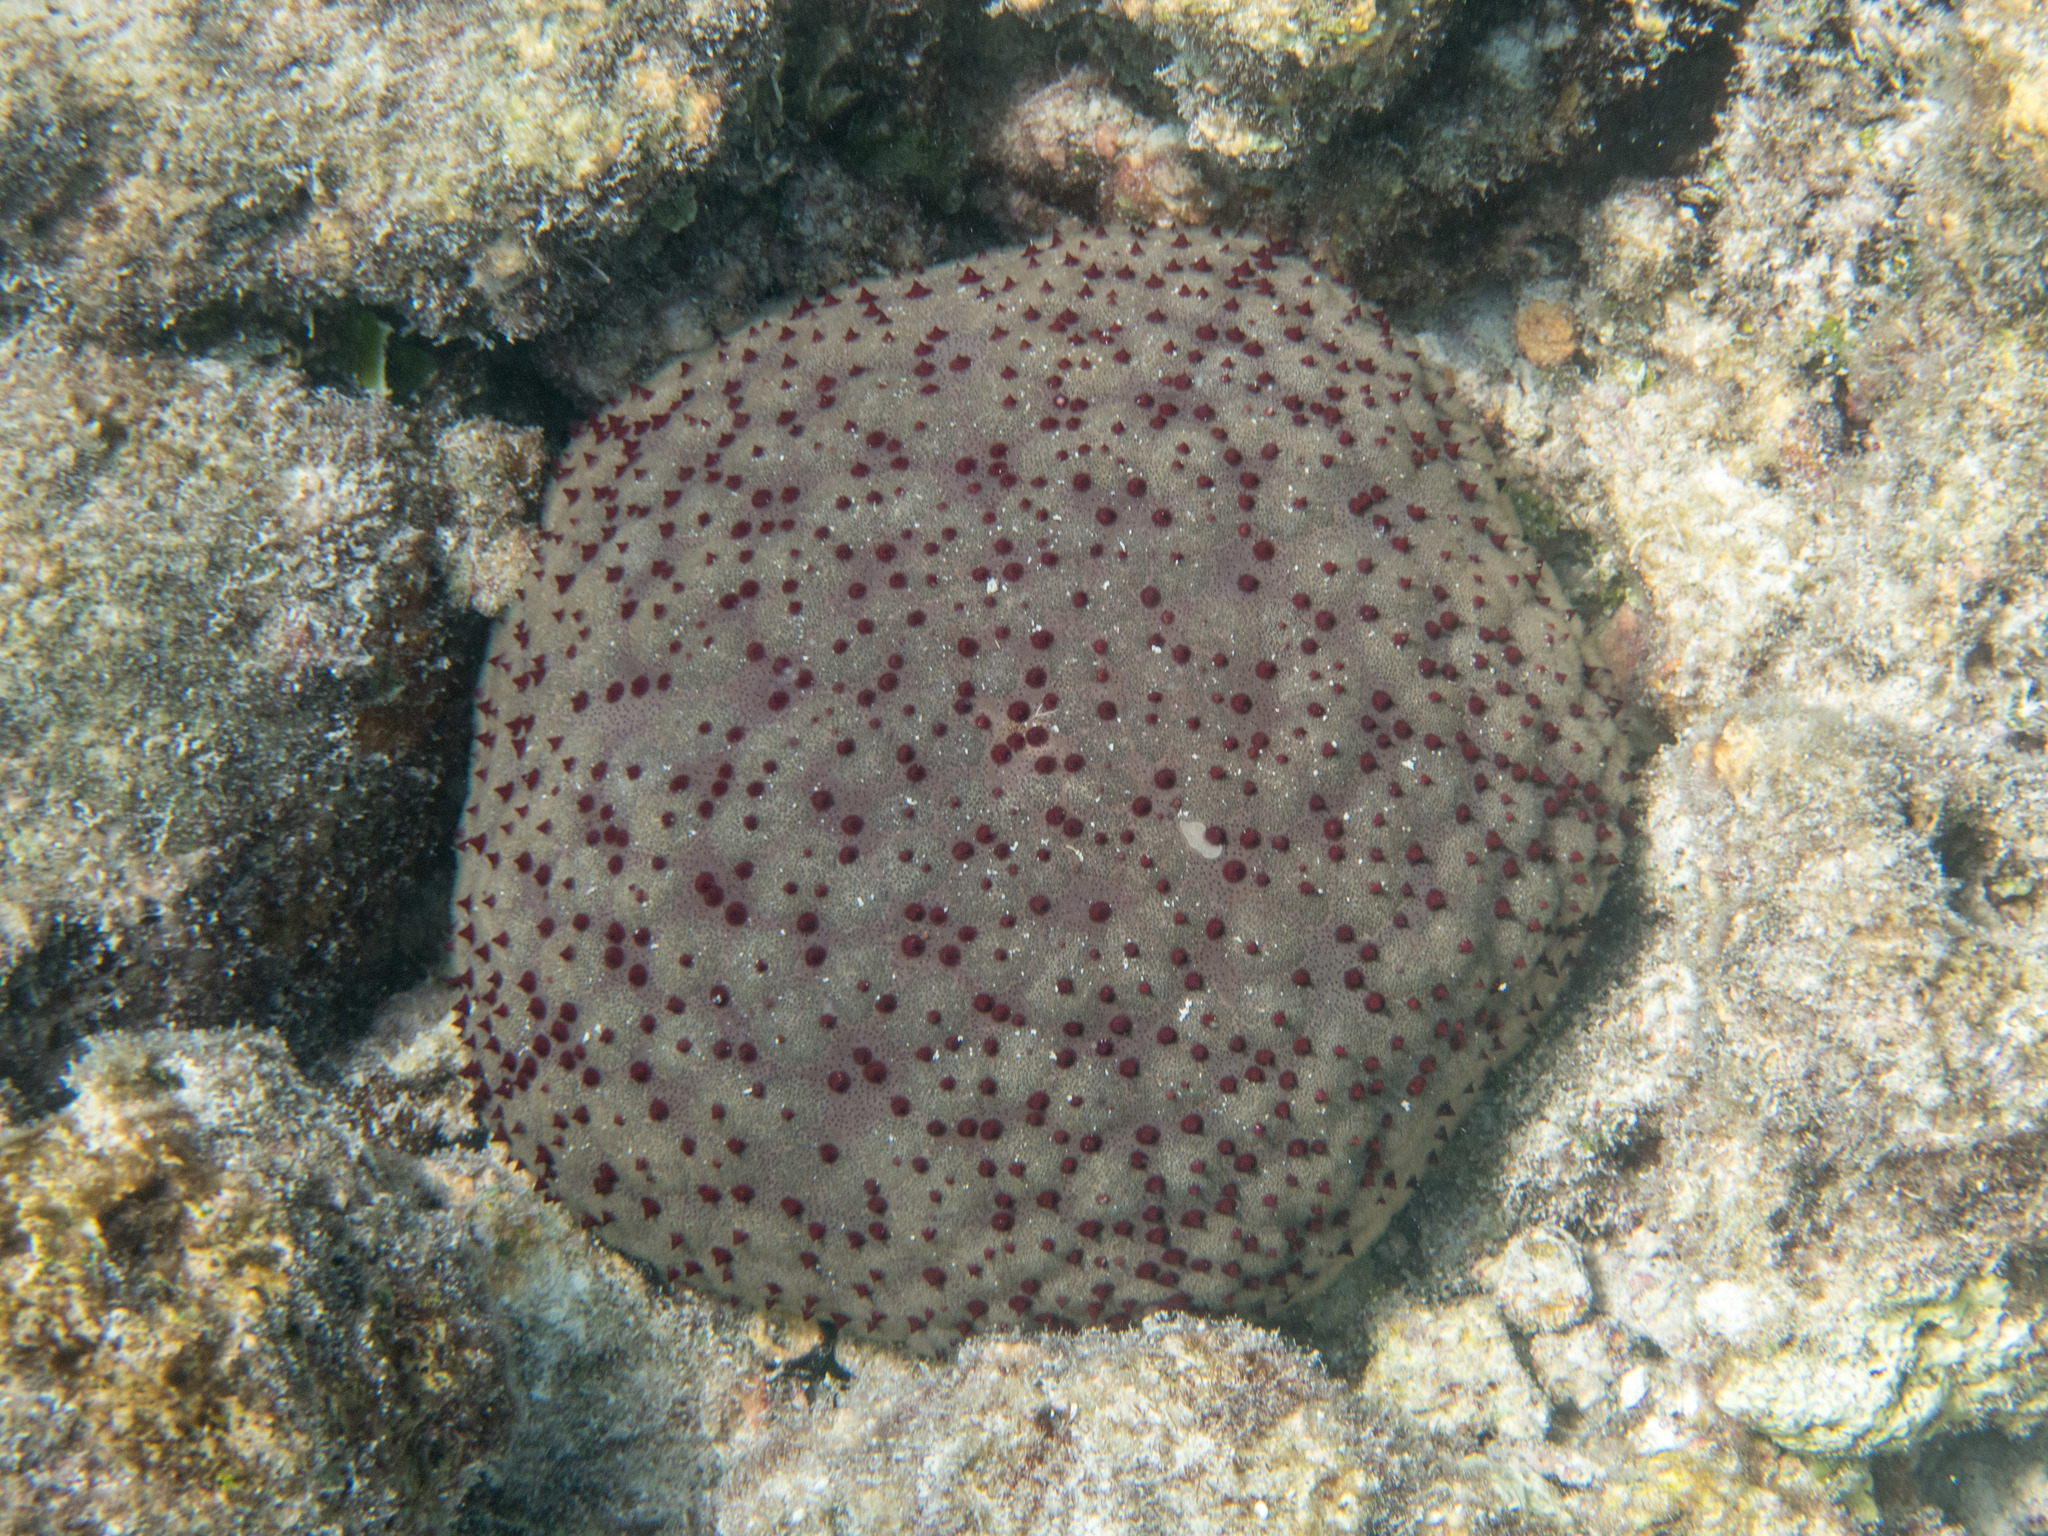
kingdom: Animalia
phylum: Echinodermata
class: Asteroidea
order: Valvatida
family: Oreasteridae
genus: Culcita
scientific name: Culcita schmideliana
